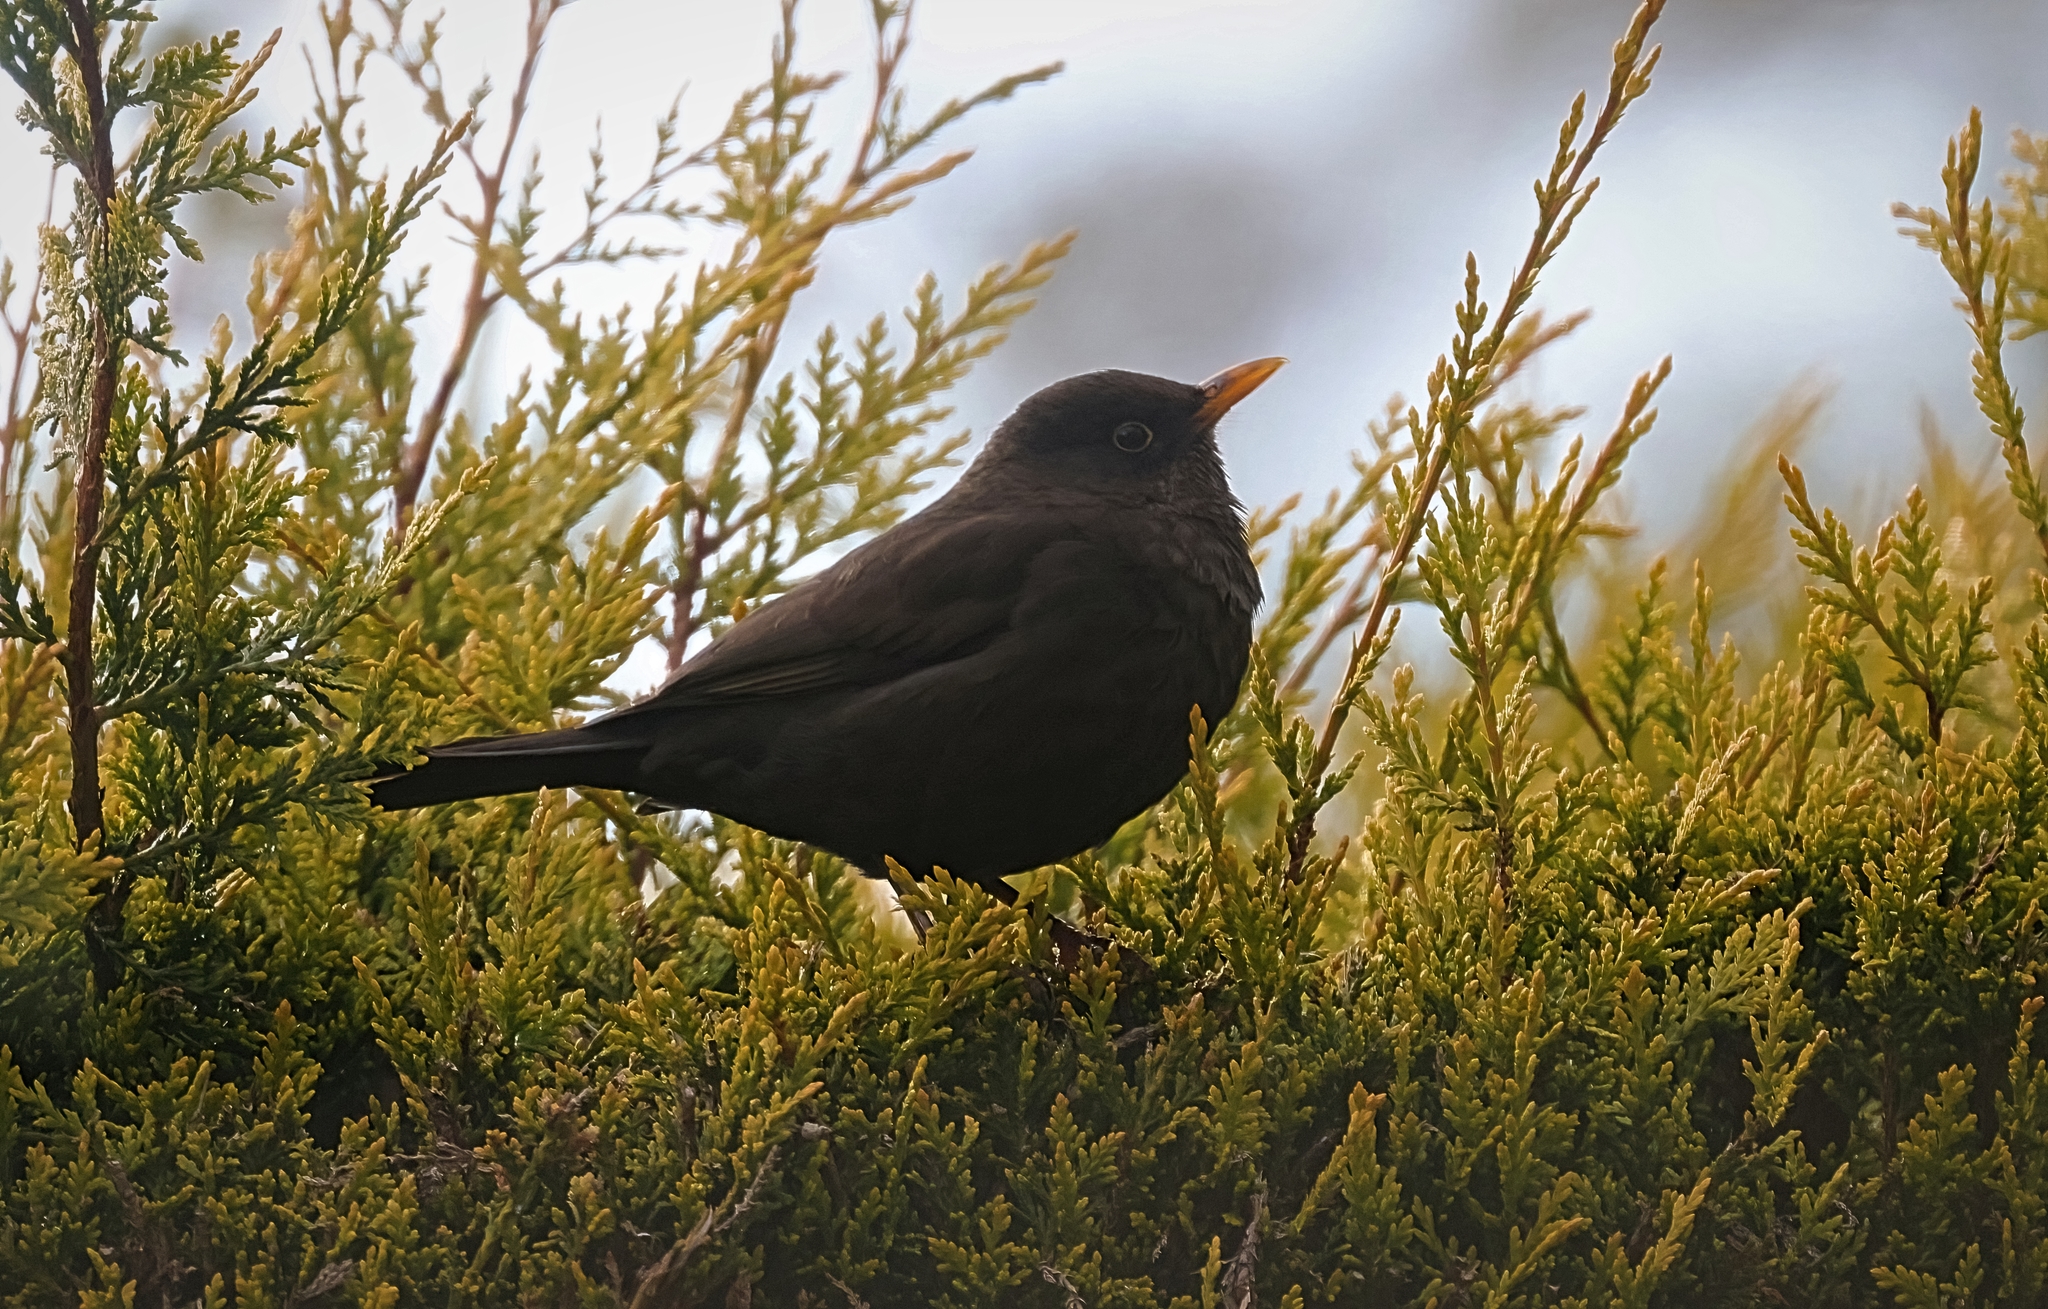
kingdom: Animalia
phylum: Chordata
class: Aves
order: Passeriformes
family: Turdidae
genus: Turdus
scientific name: Turdus merula
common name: Common blackbird
